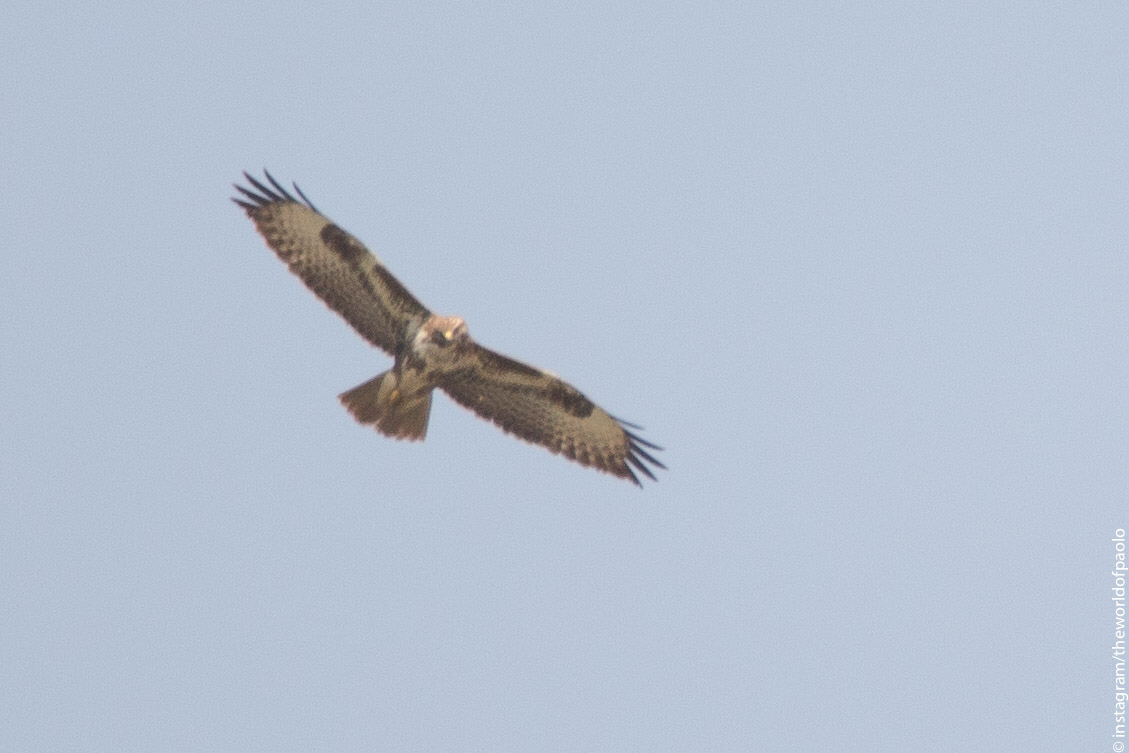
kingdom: Animalia
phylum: Chordata
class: Aves
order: Accipitriformes
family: Accipitridae
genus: Buteo
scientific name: Buteo buteo
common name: Common buzzard
